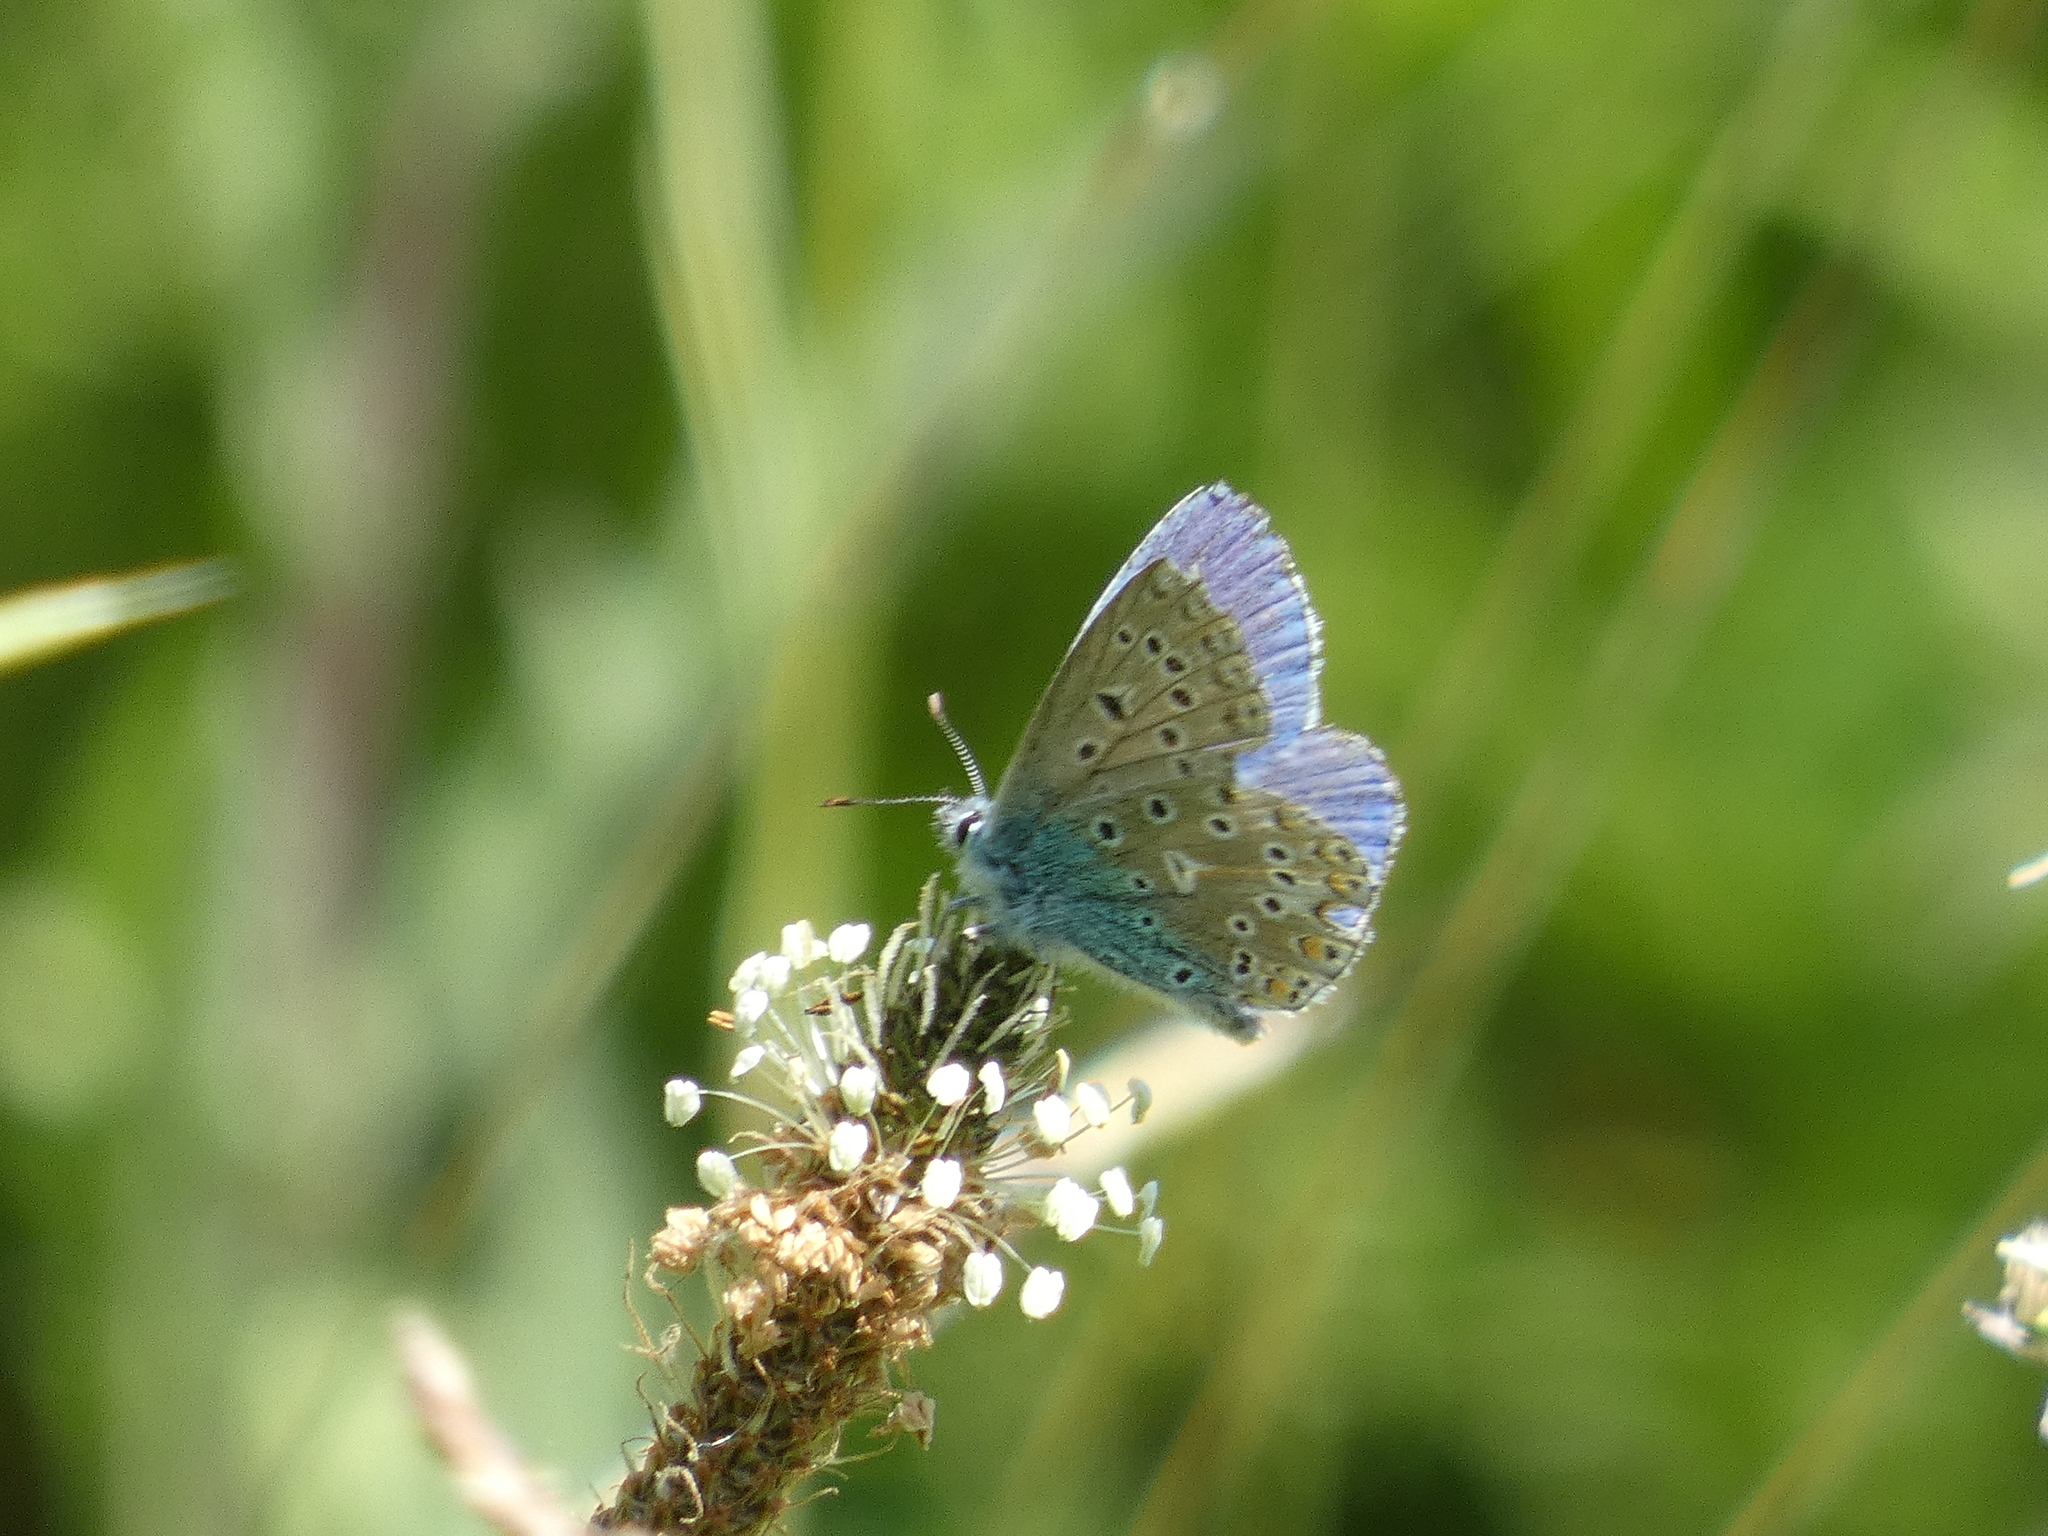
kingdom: Animalia
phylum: Arthropoda
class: Insecta
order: Lepidoptera
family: Lycaenidae
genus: Lysandra
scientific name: Lysandra bellargus
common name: Adonis blue
